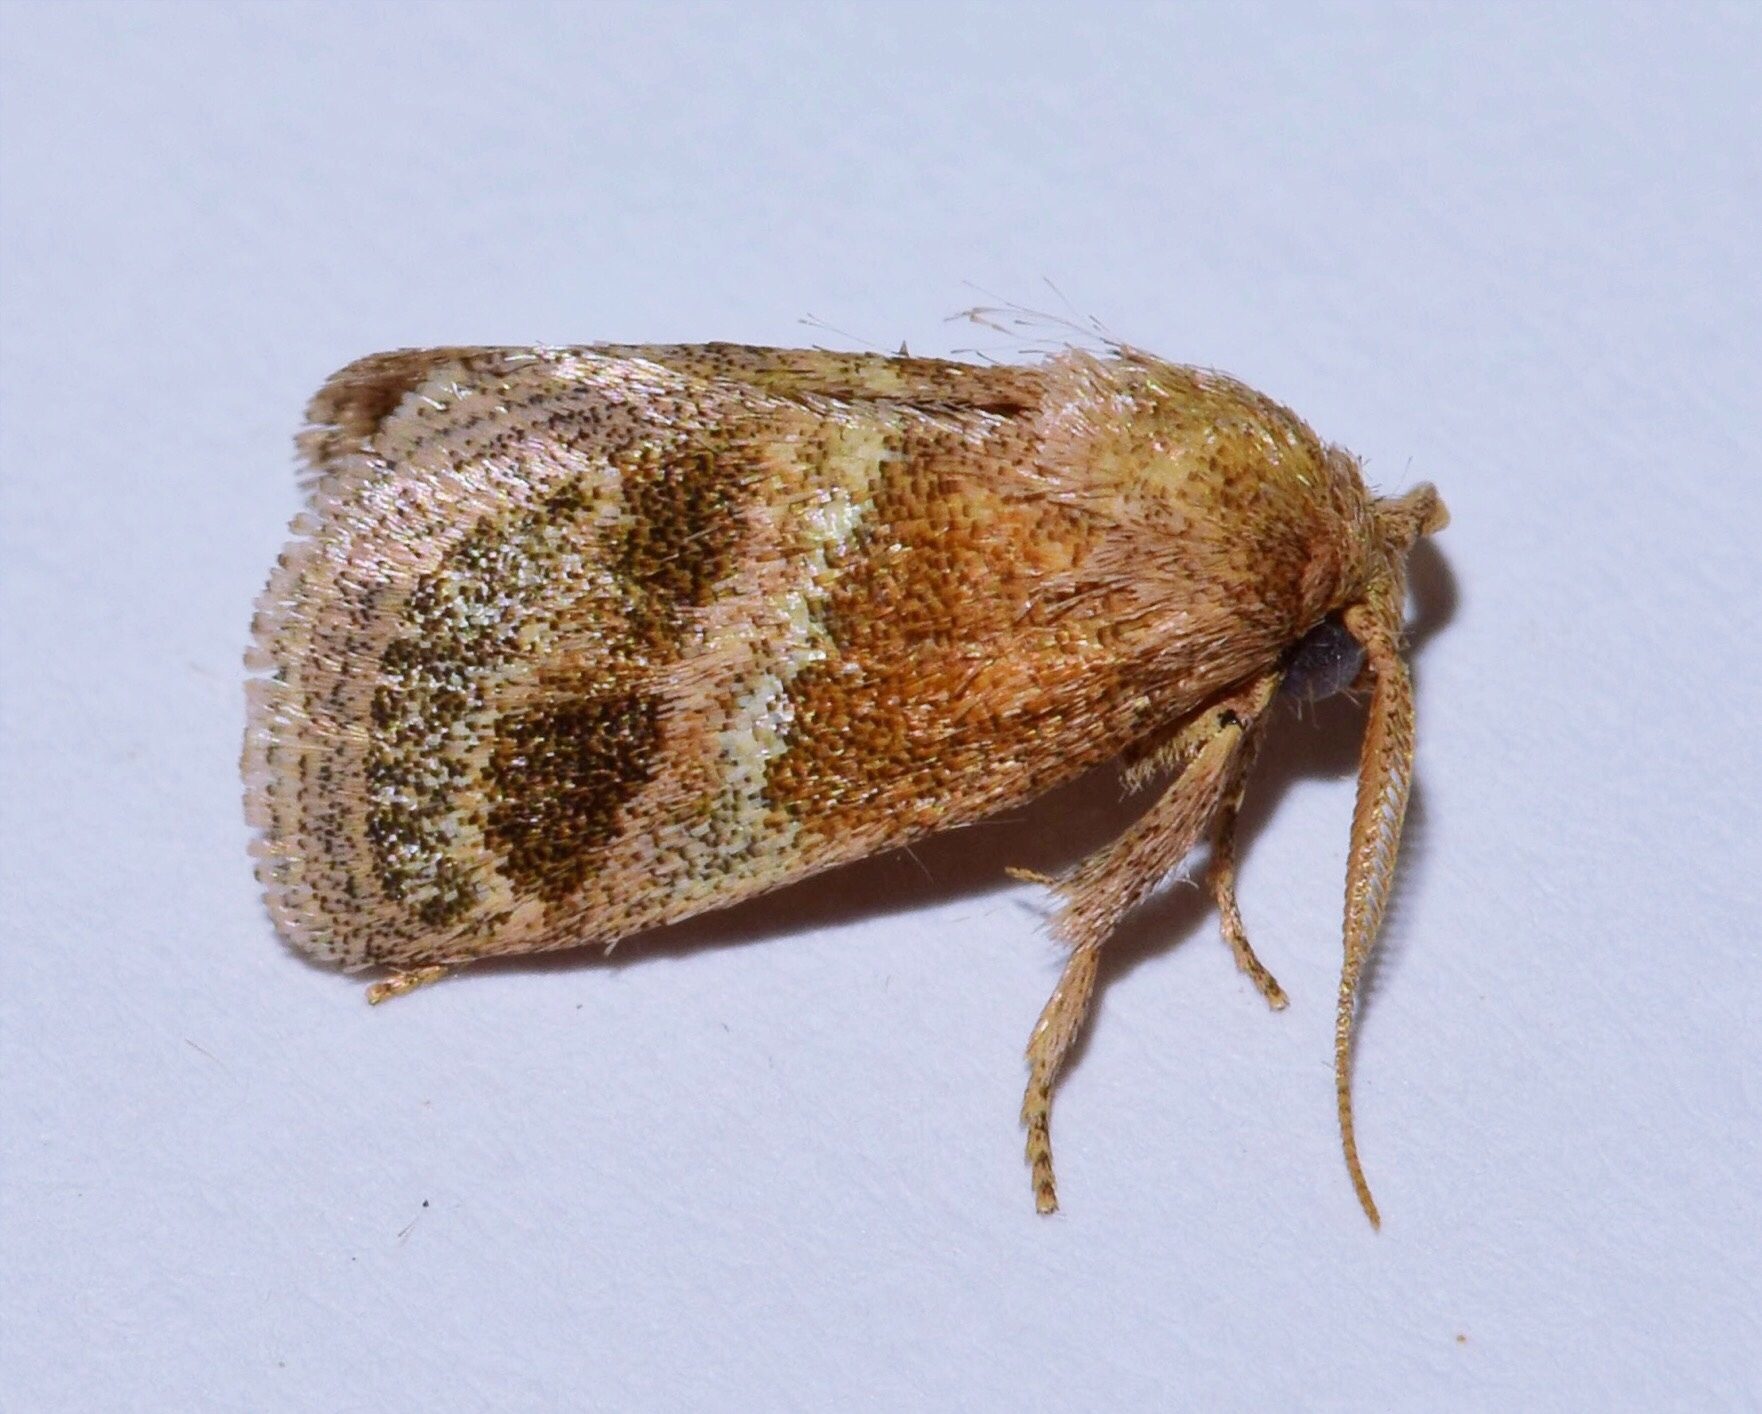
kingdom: Animalia
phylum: Arthropoda
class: Insecta
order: Lepidoptera
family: Limacodidae
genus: Halseyia
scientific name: Halseyia biumbrata
